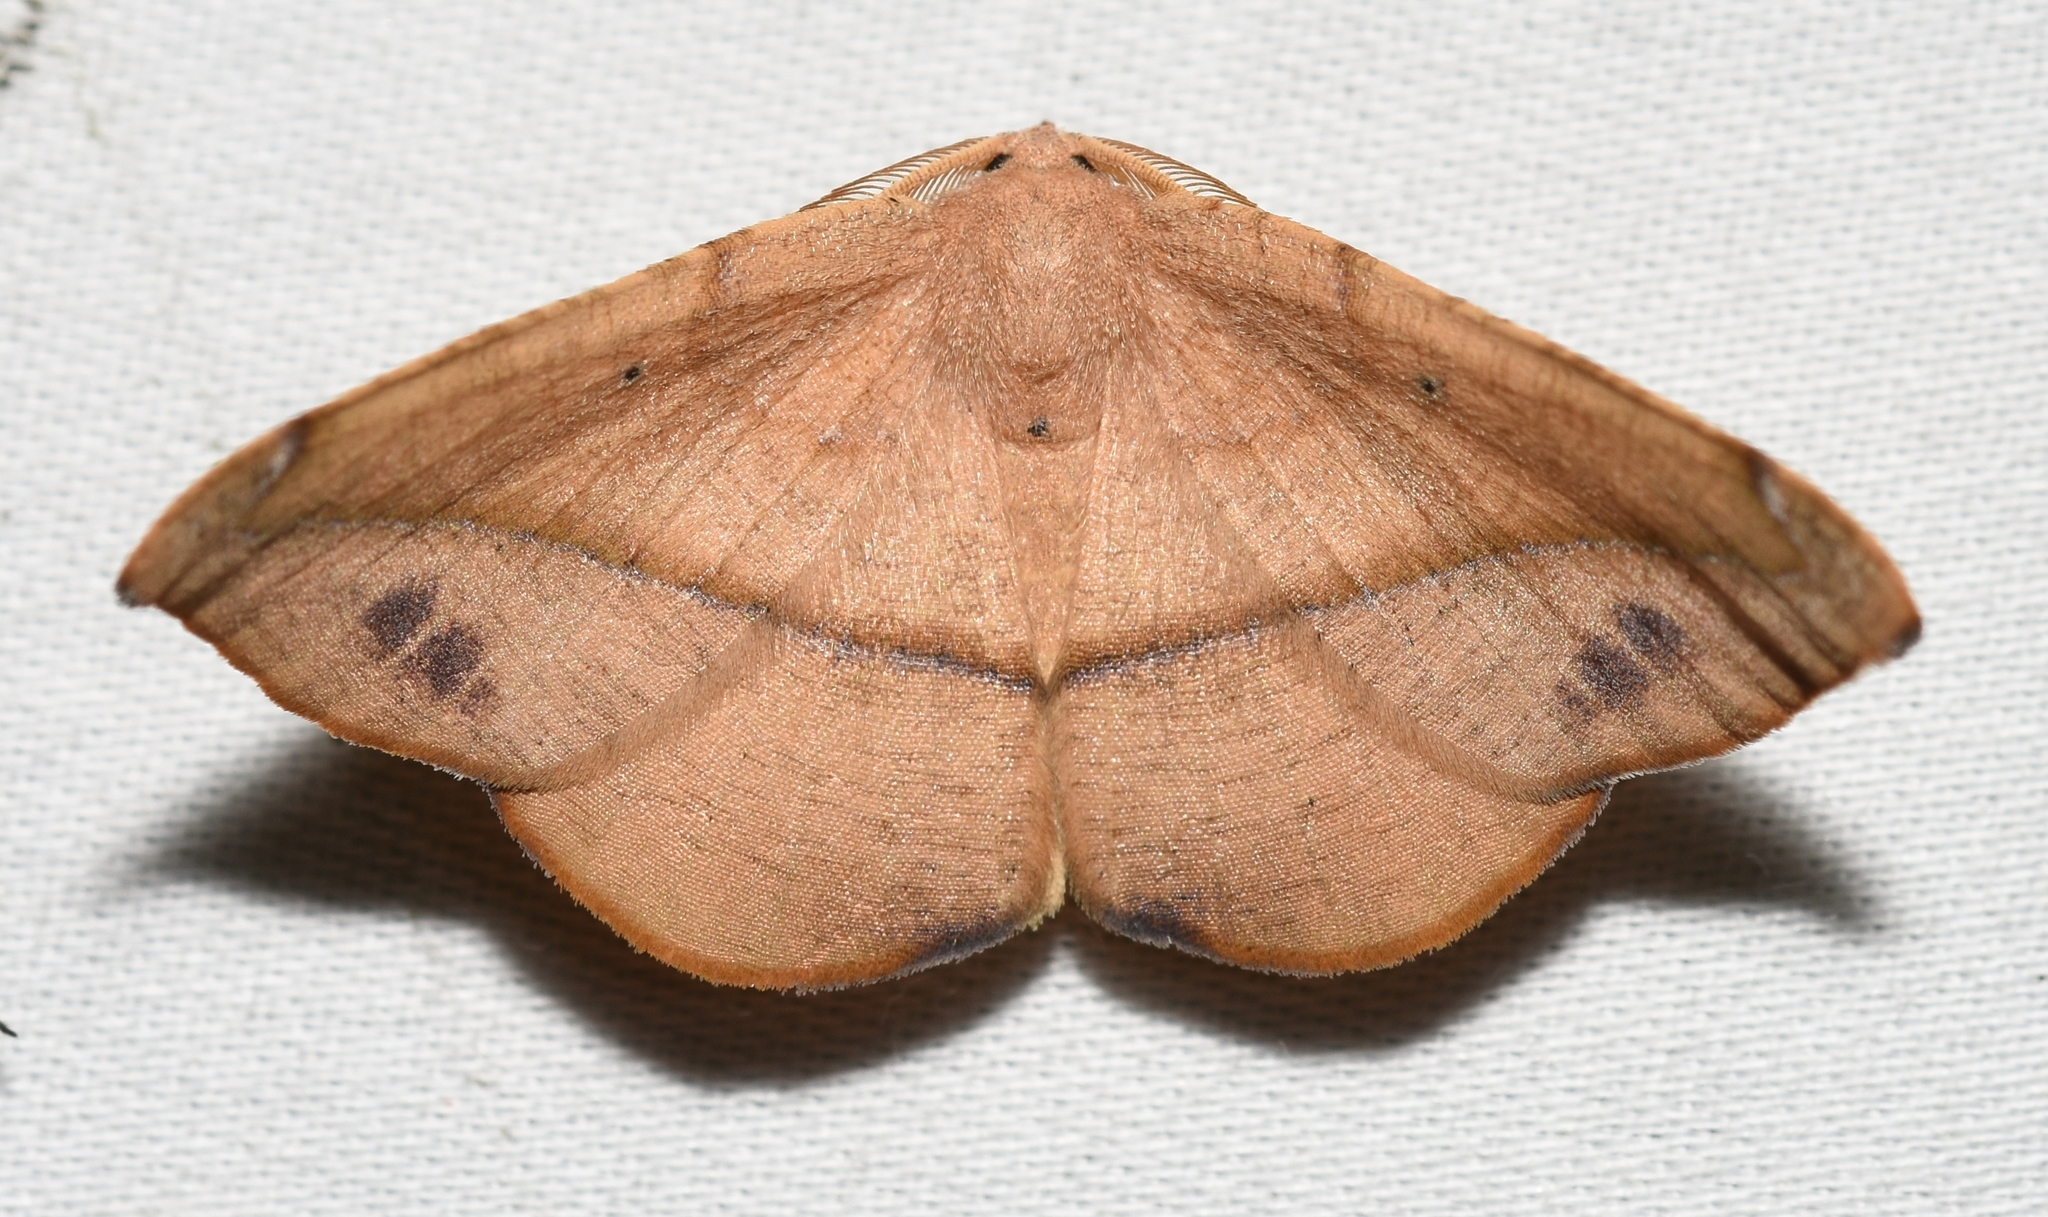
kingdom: Animalia
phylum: Arthropoda
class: Insecta
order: Lepidoptera
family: Geometridae
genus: Patalene
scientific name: Patalene olyzonaria
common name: Juniper geometer moth
